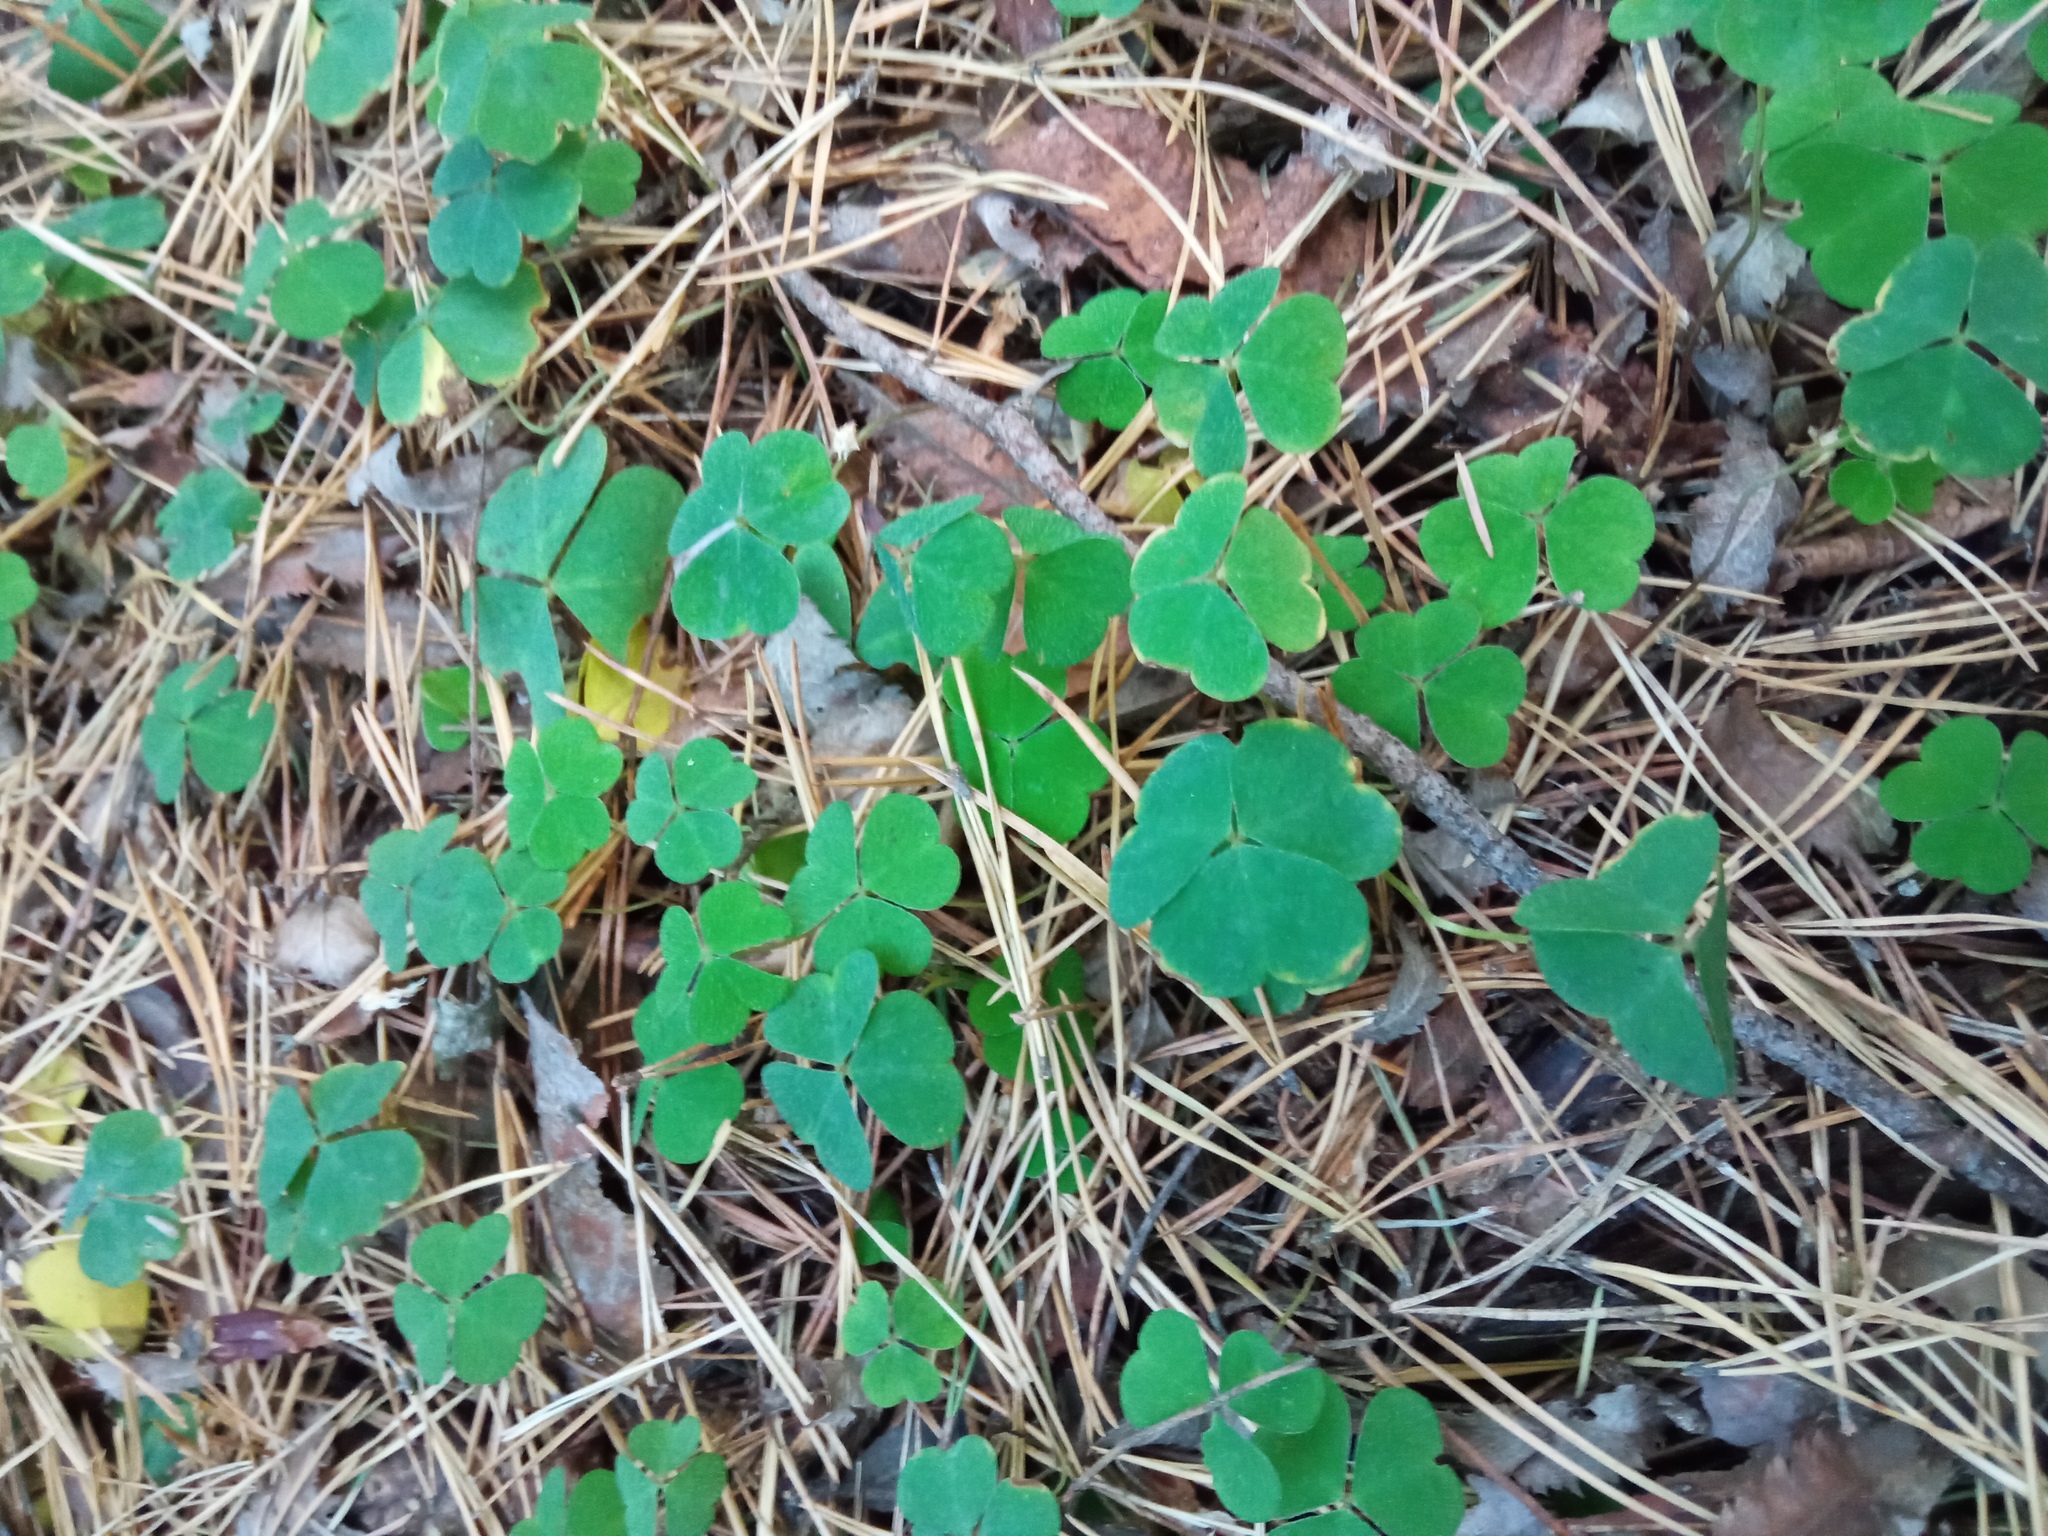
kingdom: Plantae
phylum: Tracheophyta
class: Magnoliopsida
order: Oxalidales
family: Oxalidaceae
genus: Oxalis
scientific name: Oxalis acetosella
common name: Wood-sorrel
